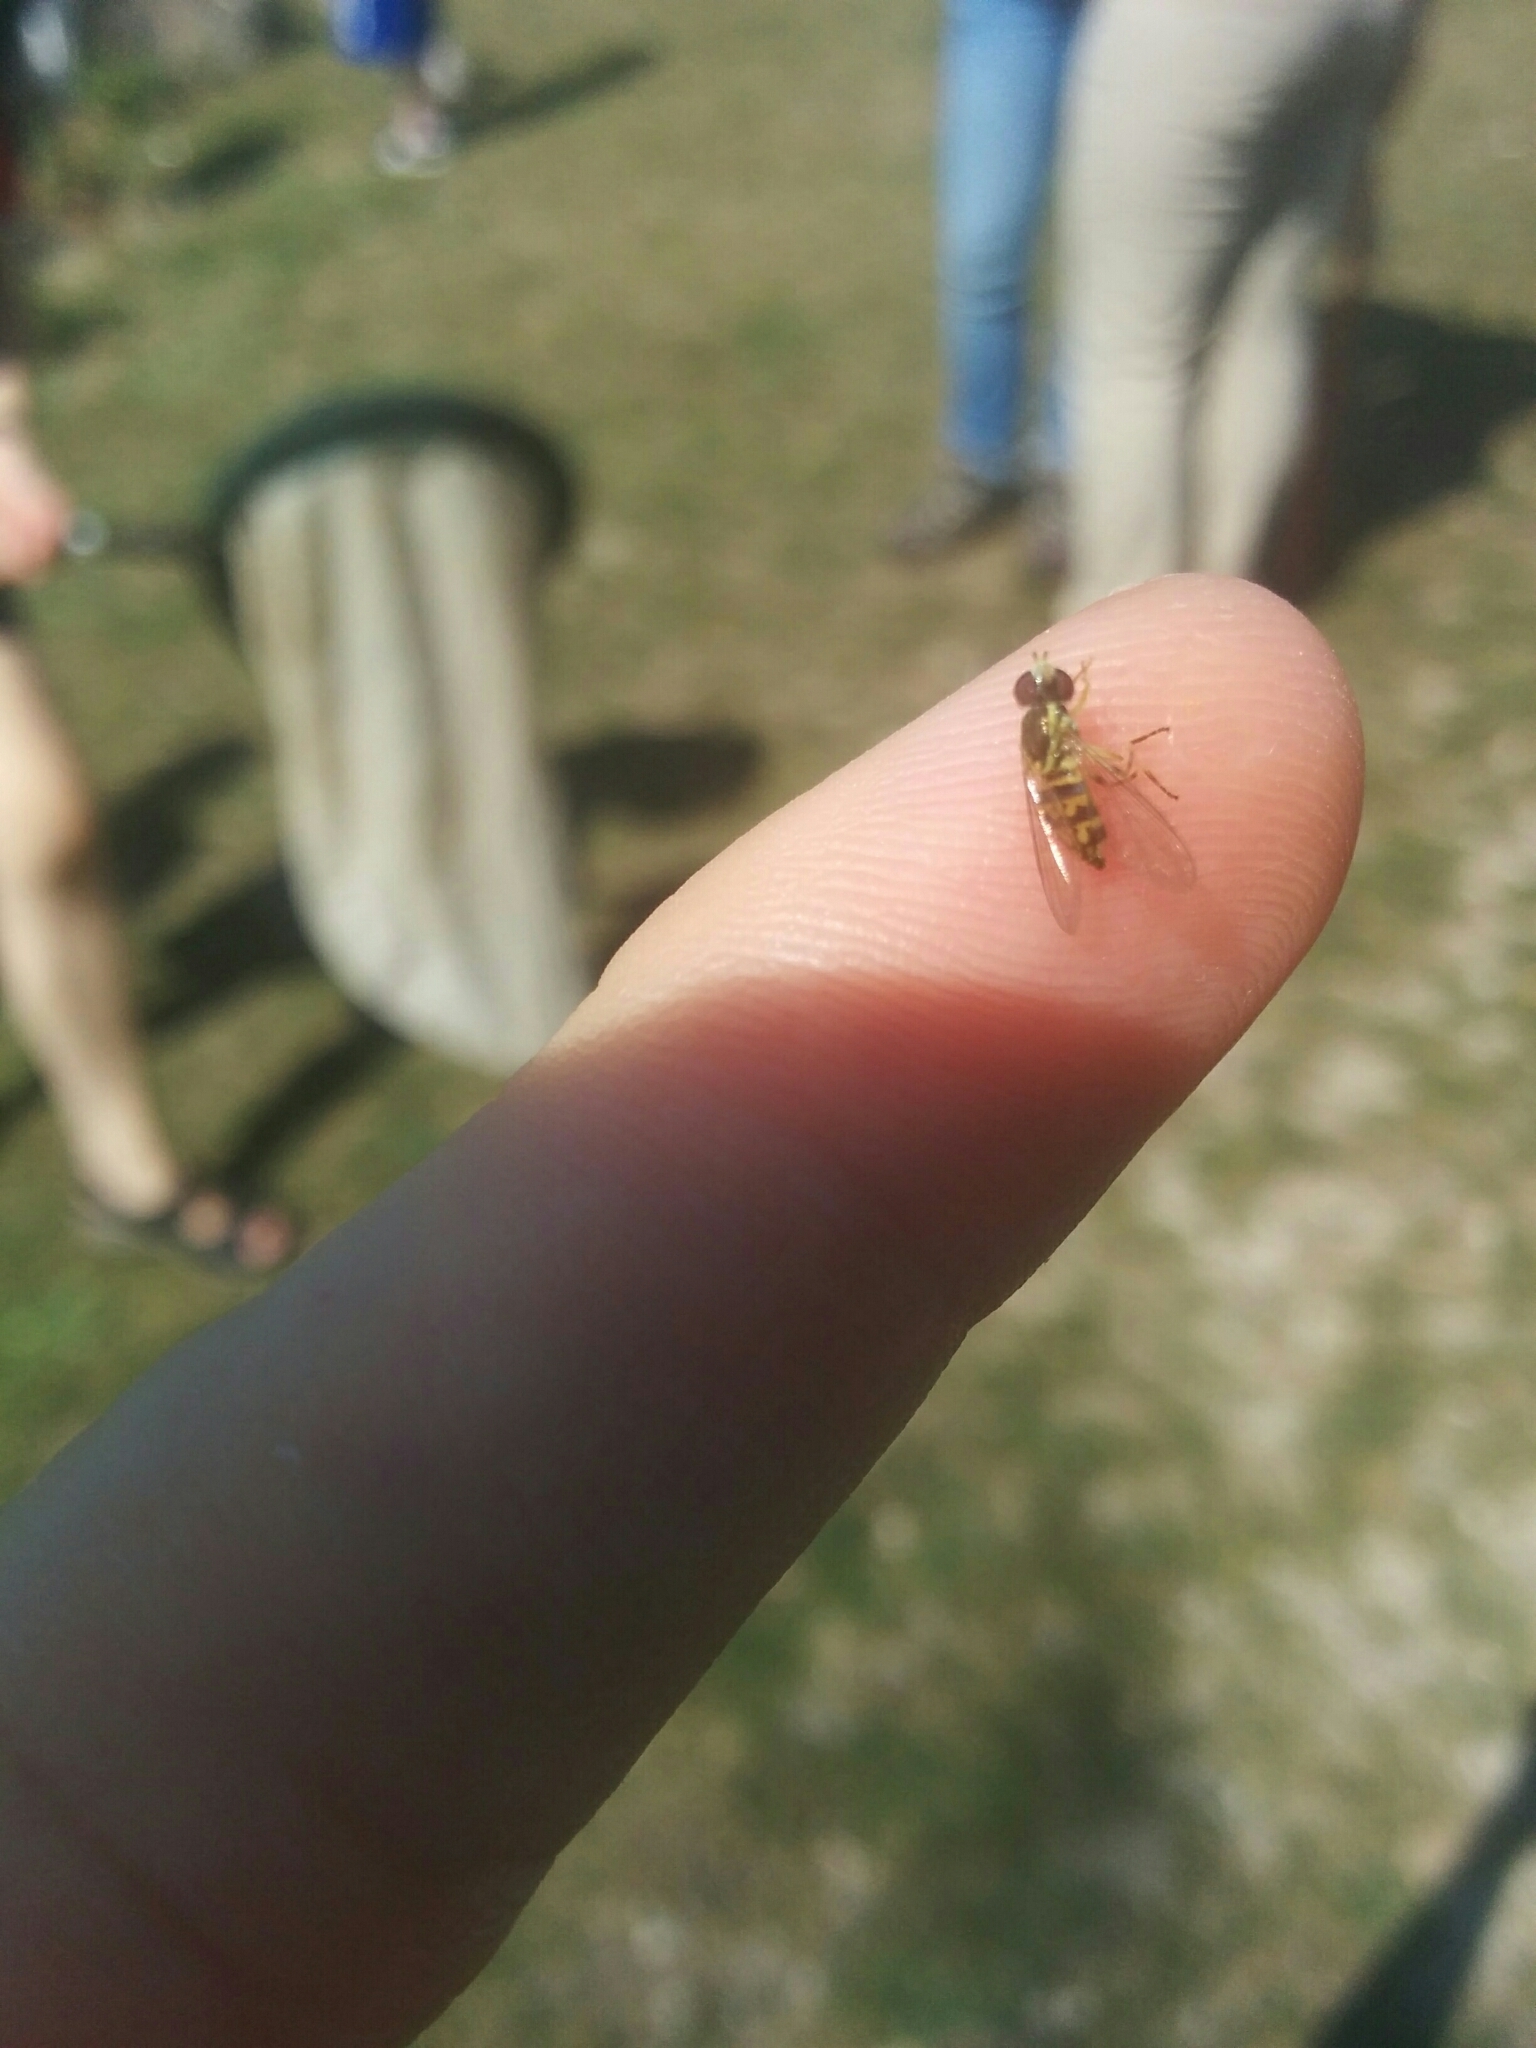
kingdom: Animalia
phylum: Arthropoda
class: Insecta
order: Diptera
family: Syrphidae
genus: Toxomerus
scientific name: Toxomerus geminatus
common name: Eastern calligrapher
